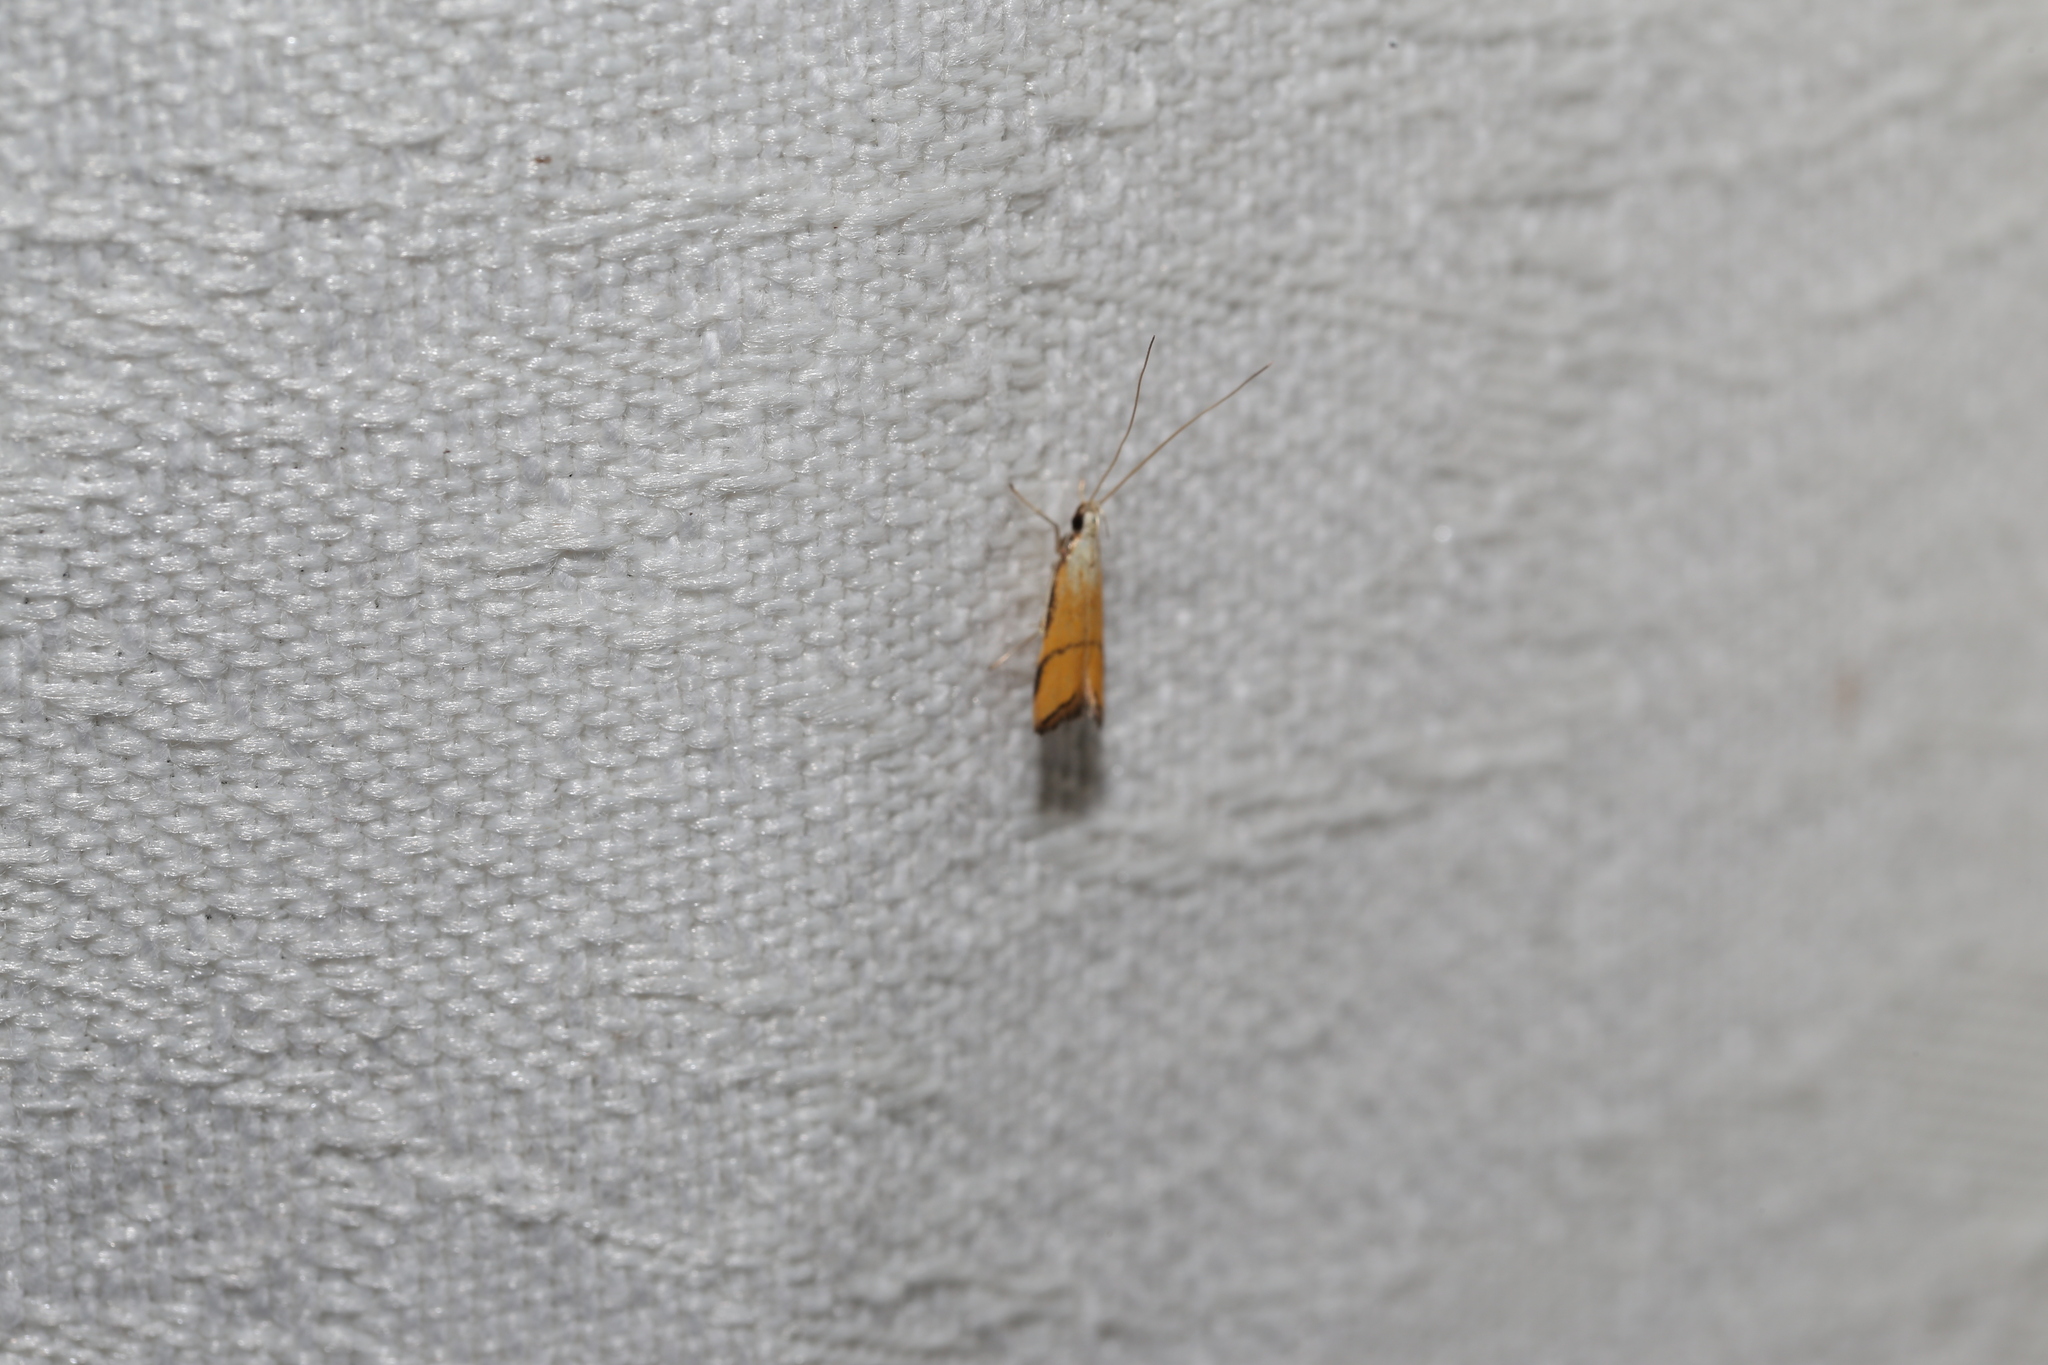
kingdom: Animalia
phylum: Arthropoda
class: Insecta
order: Lepidoptera
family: Lecithoceridae
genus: Crocanthes
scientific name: Crocanthes perigrapta
